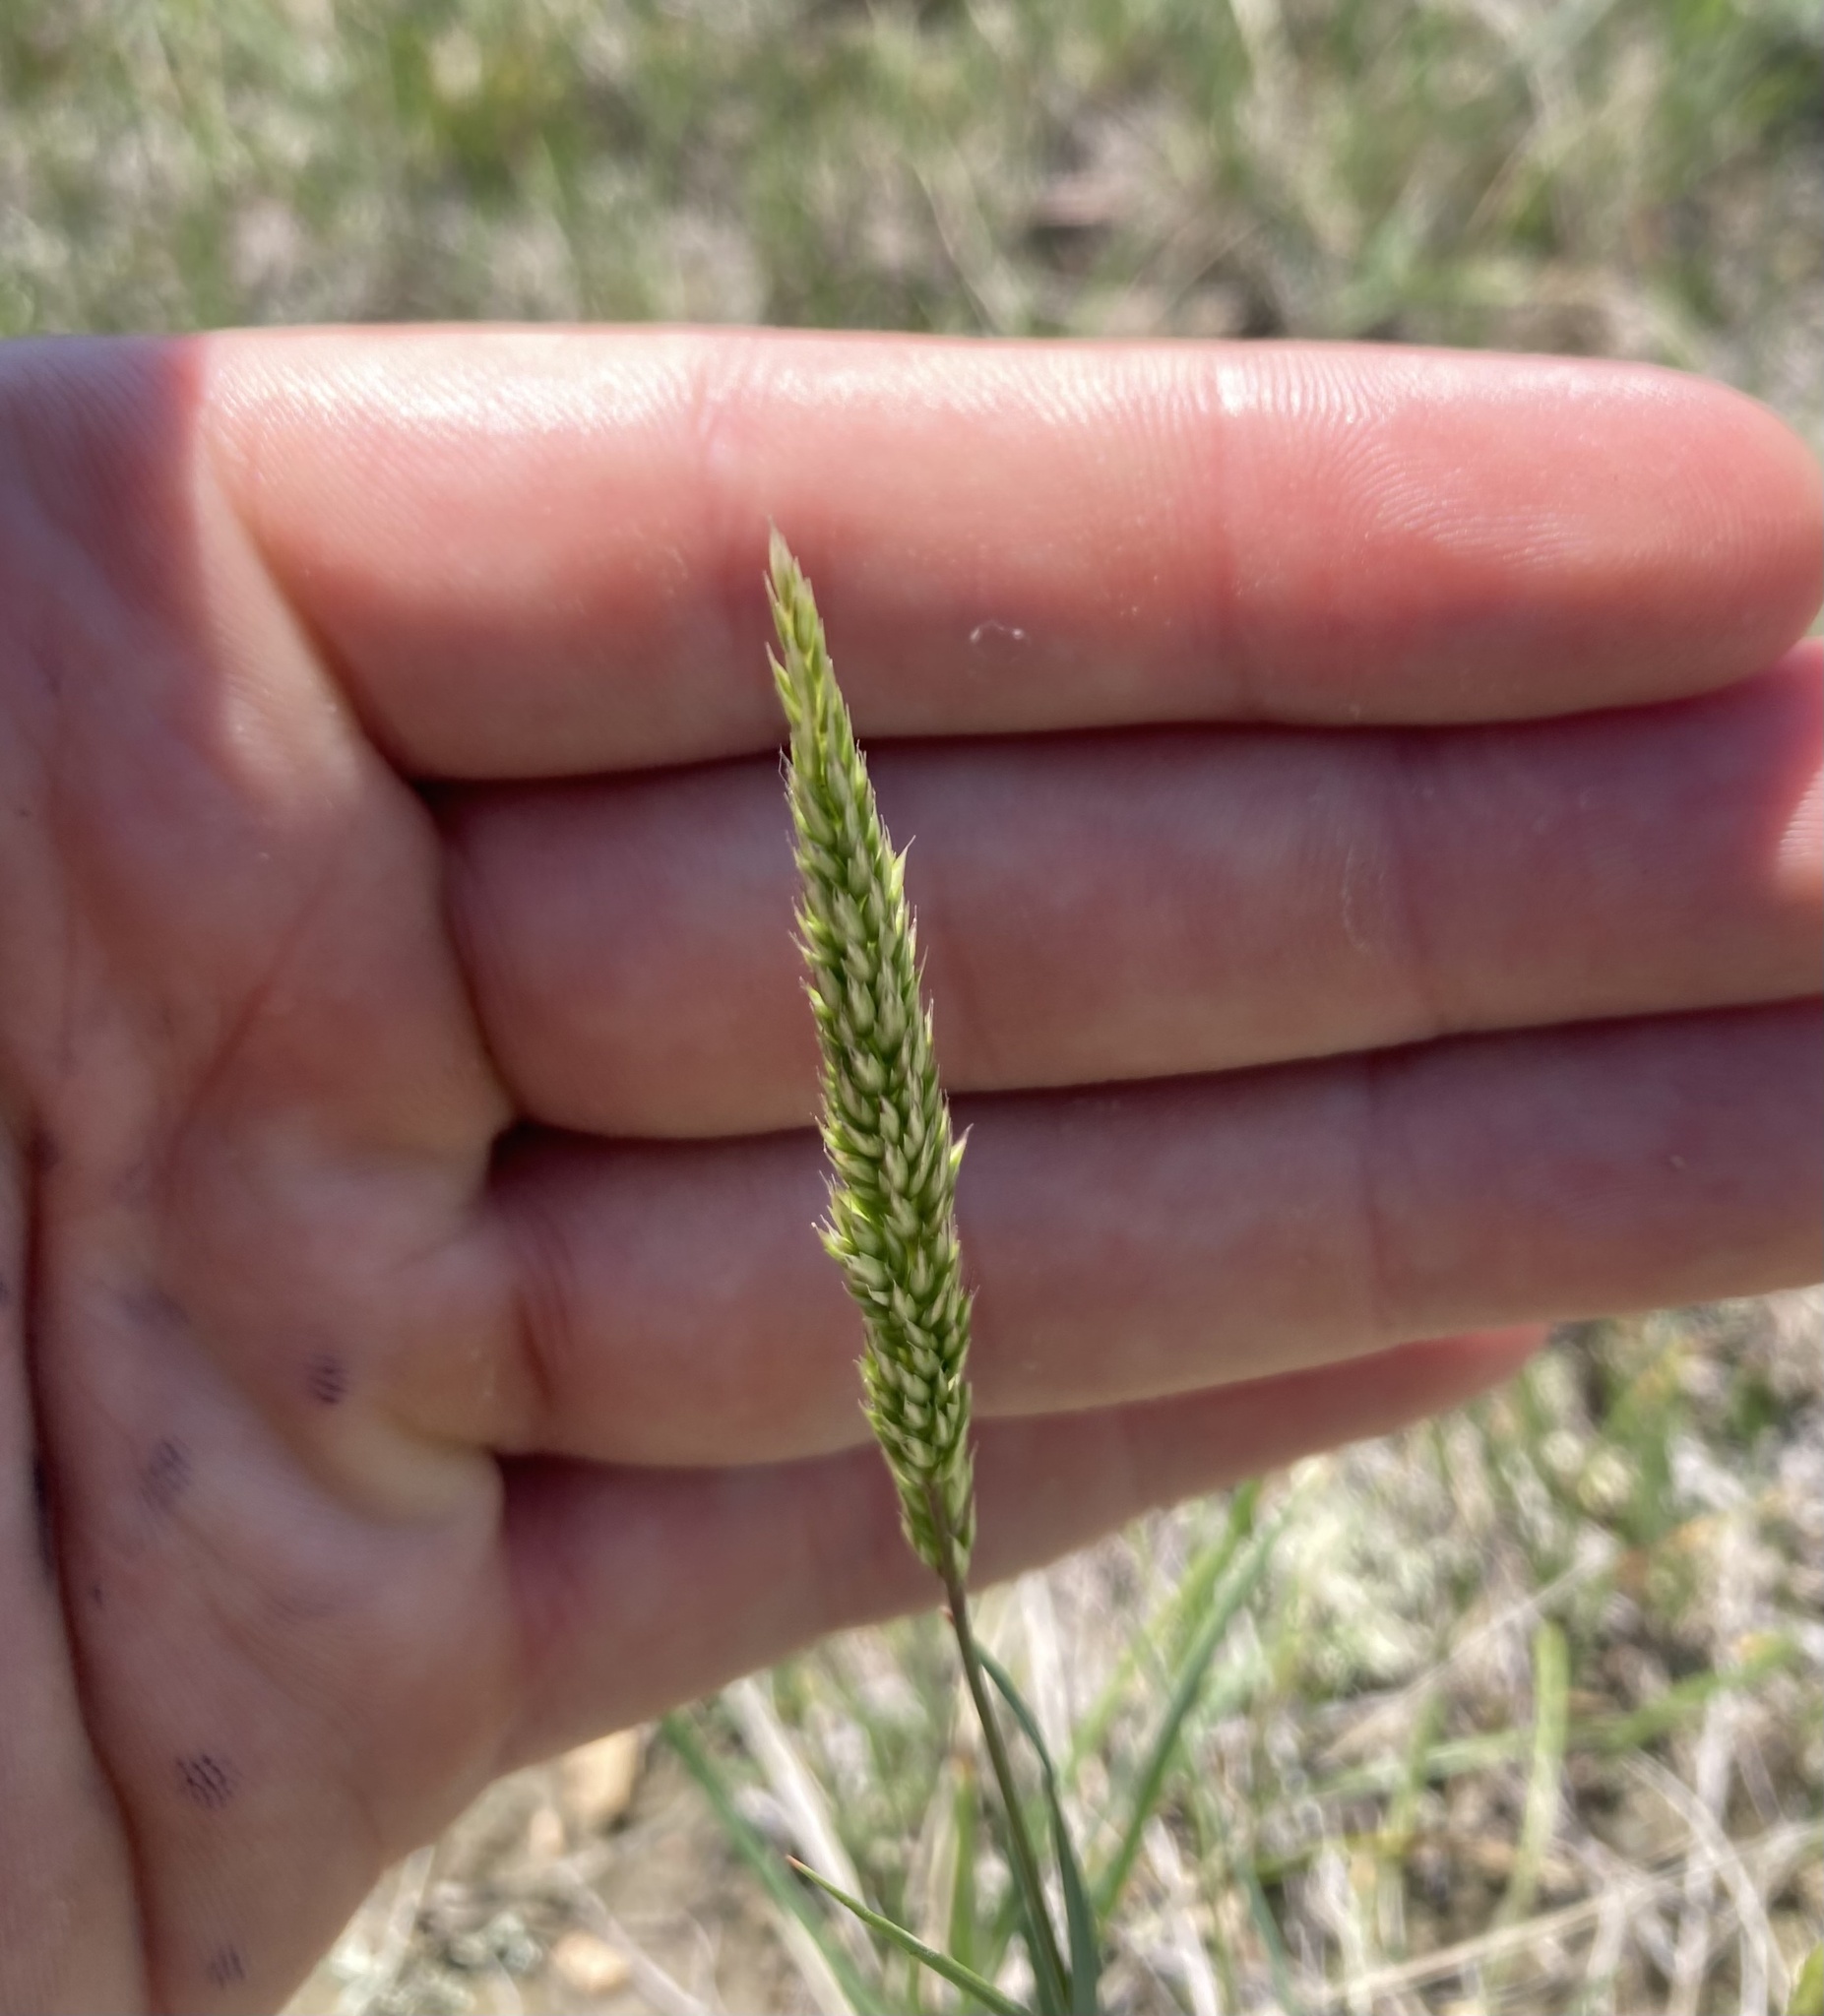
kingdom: Plantae
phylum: Tracheophyta
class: Liliopsida
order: Poales
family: Poaceae
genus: Koeleria
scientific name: Koeleria macrantha
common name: Crested hair-grass
